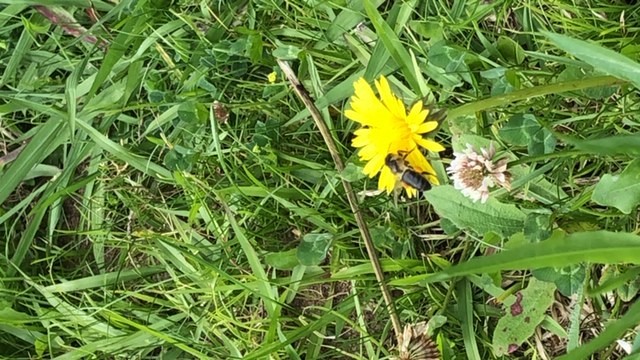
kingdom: Animalia
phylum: Arthropoda
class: Insecta
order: Hymenoptera
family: Apidae
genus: Apis
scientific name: Apis mellifera
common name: Honey bee
